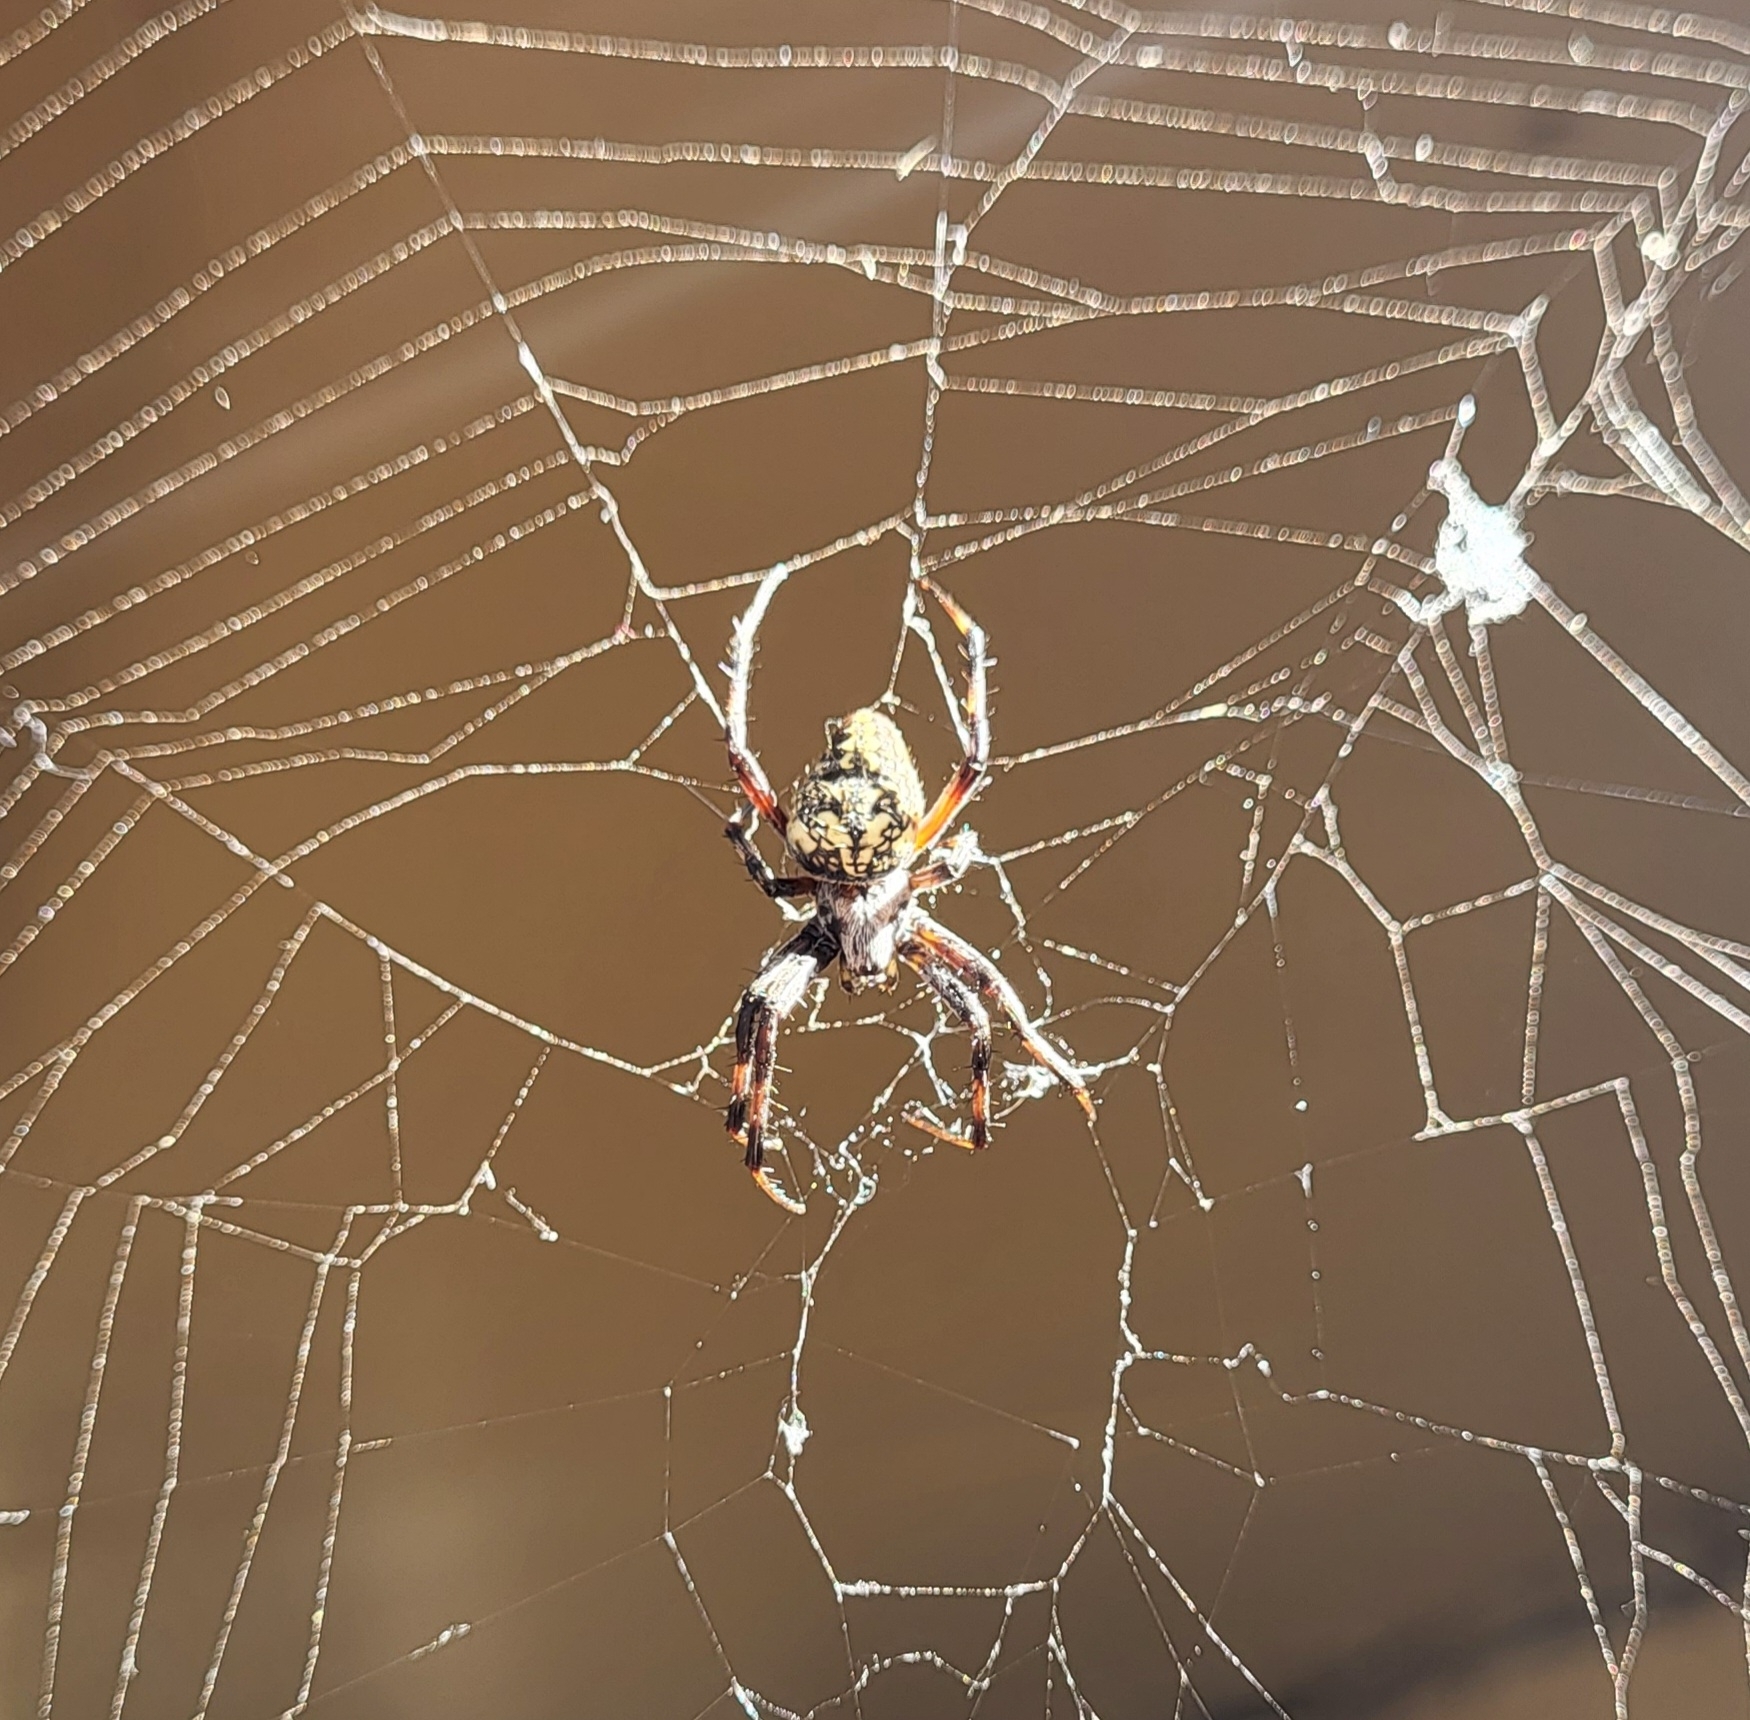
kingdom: Animalia
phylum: Arthropoda
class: Arachnida
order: Araneae
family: Araneidae
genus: Neoscona
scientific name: Neoscona oaxacensis
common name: Orb weavers
